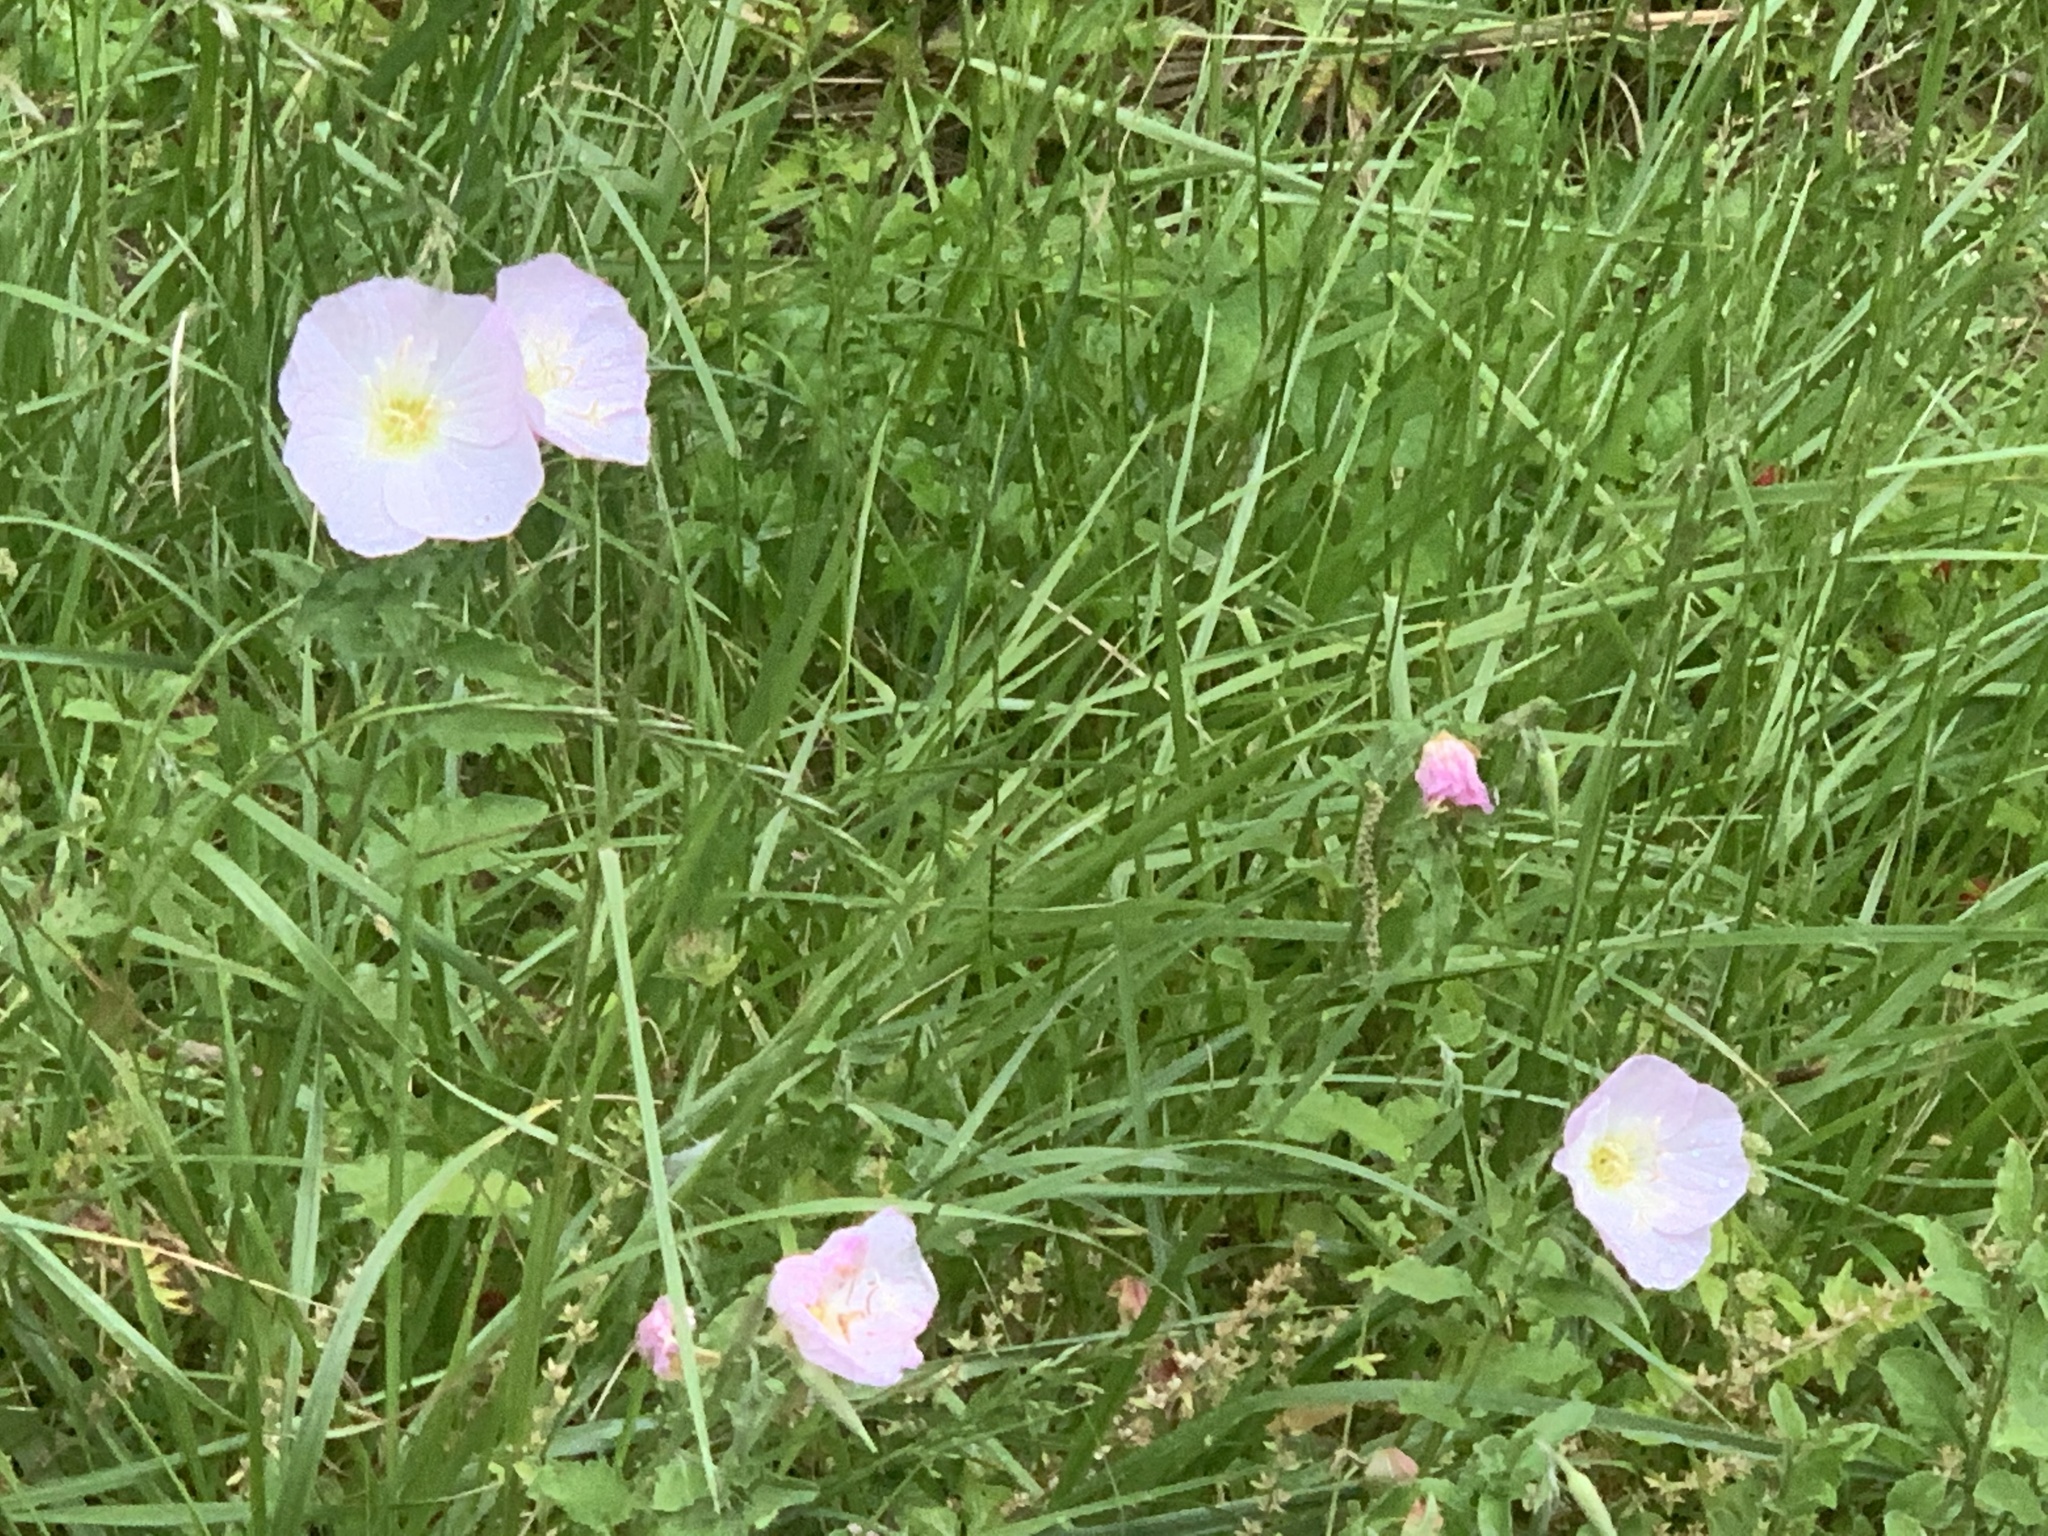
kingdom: Plantae
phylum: Tracheophyta
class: Magnoliopsida
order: Myrtales
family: Onagraceae
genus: Oenothera
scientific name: Oenothera speciosa
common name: White evening-primrose
